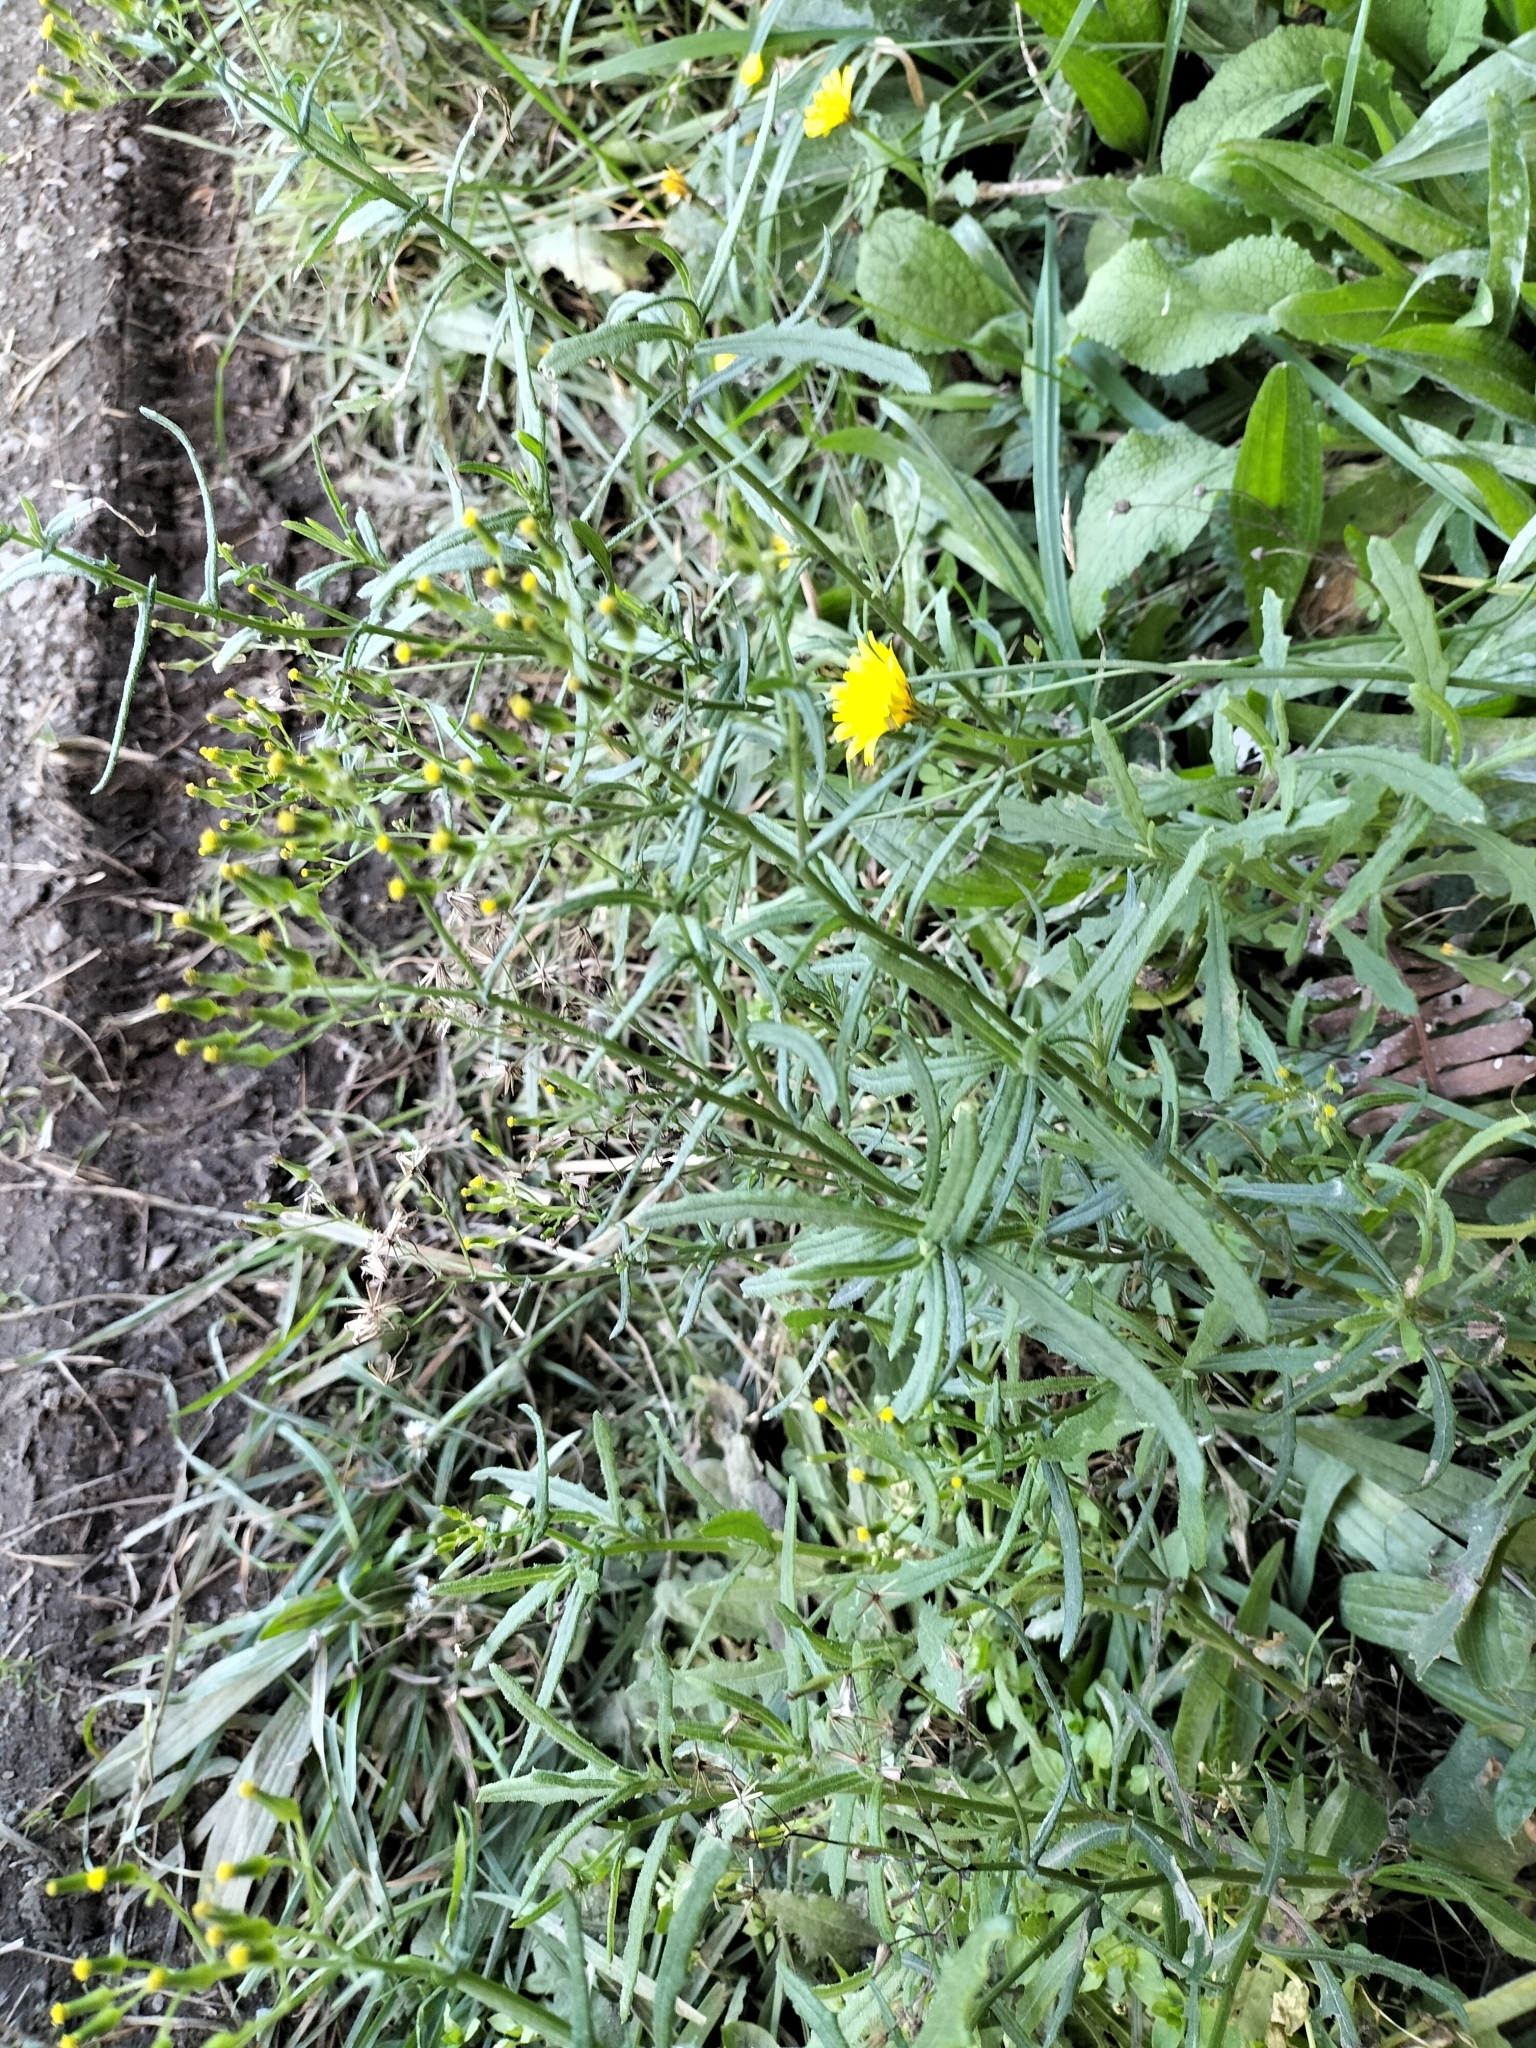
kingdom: Plantae
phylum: Tracheophyta
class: Magnoliopsida
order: Asterales
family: Asteraceae
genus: Senecio
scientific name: Senecio hispidulus
